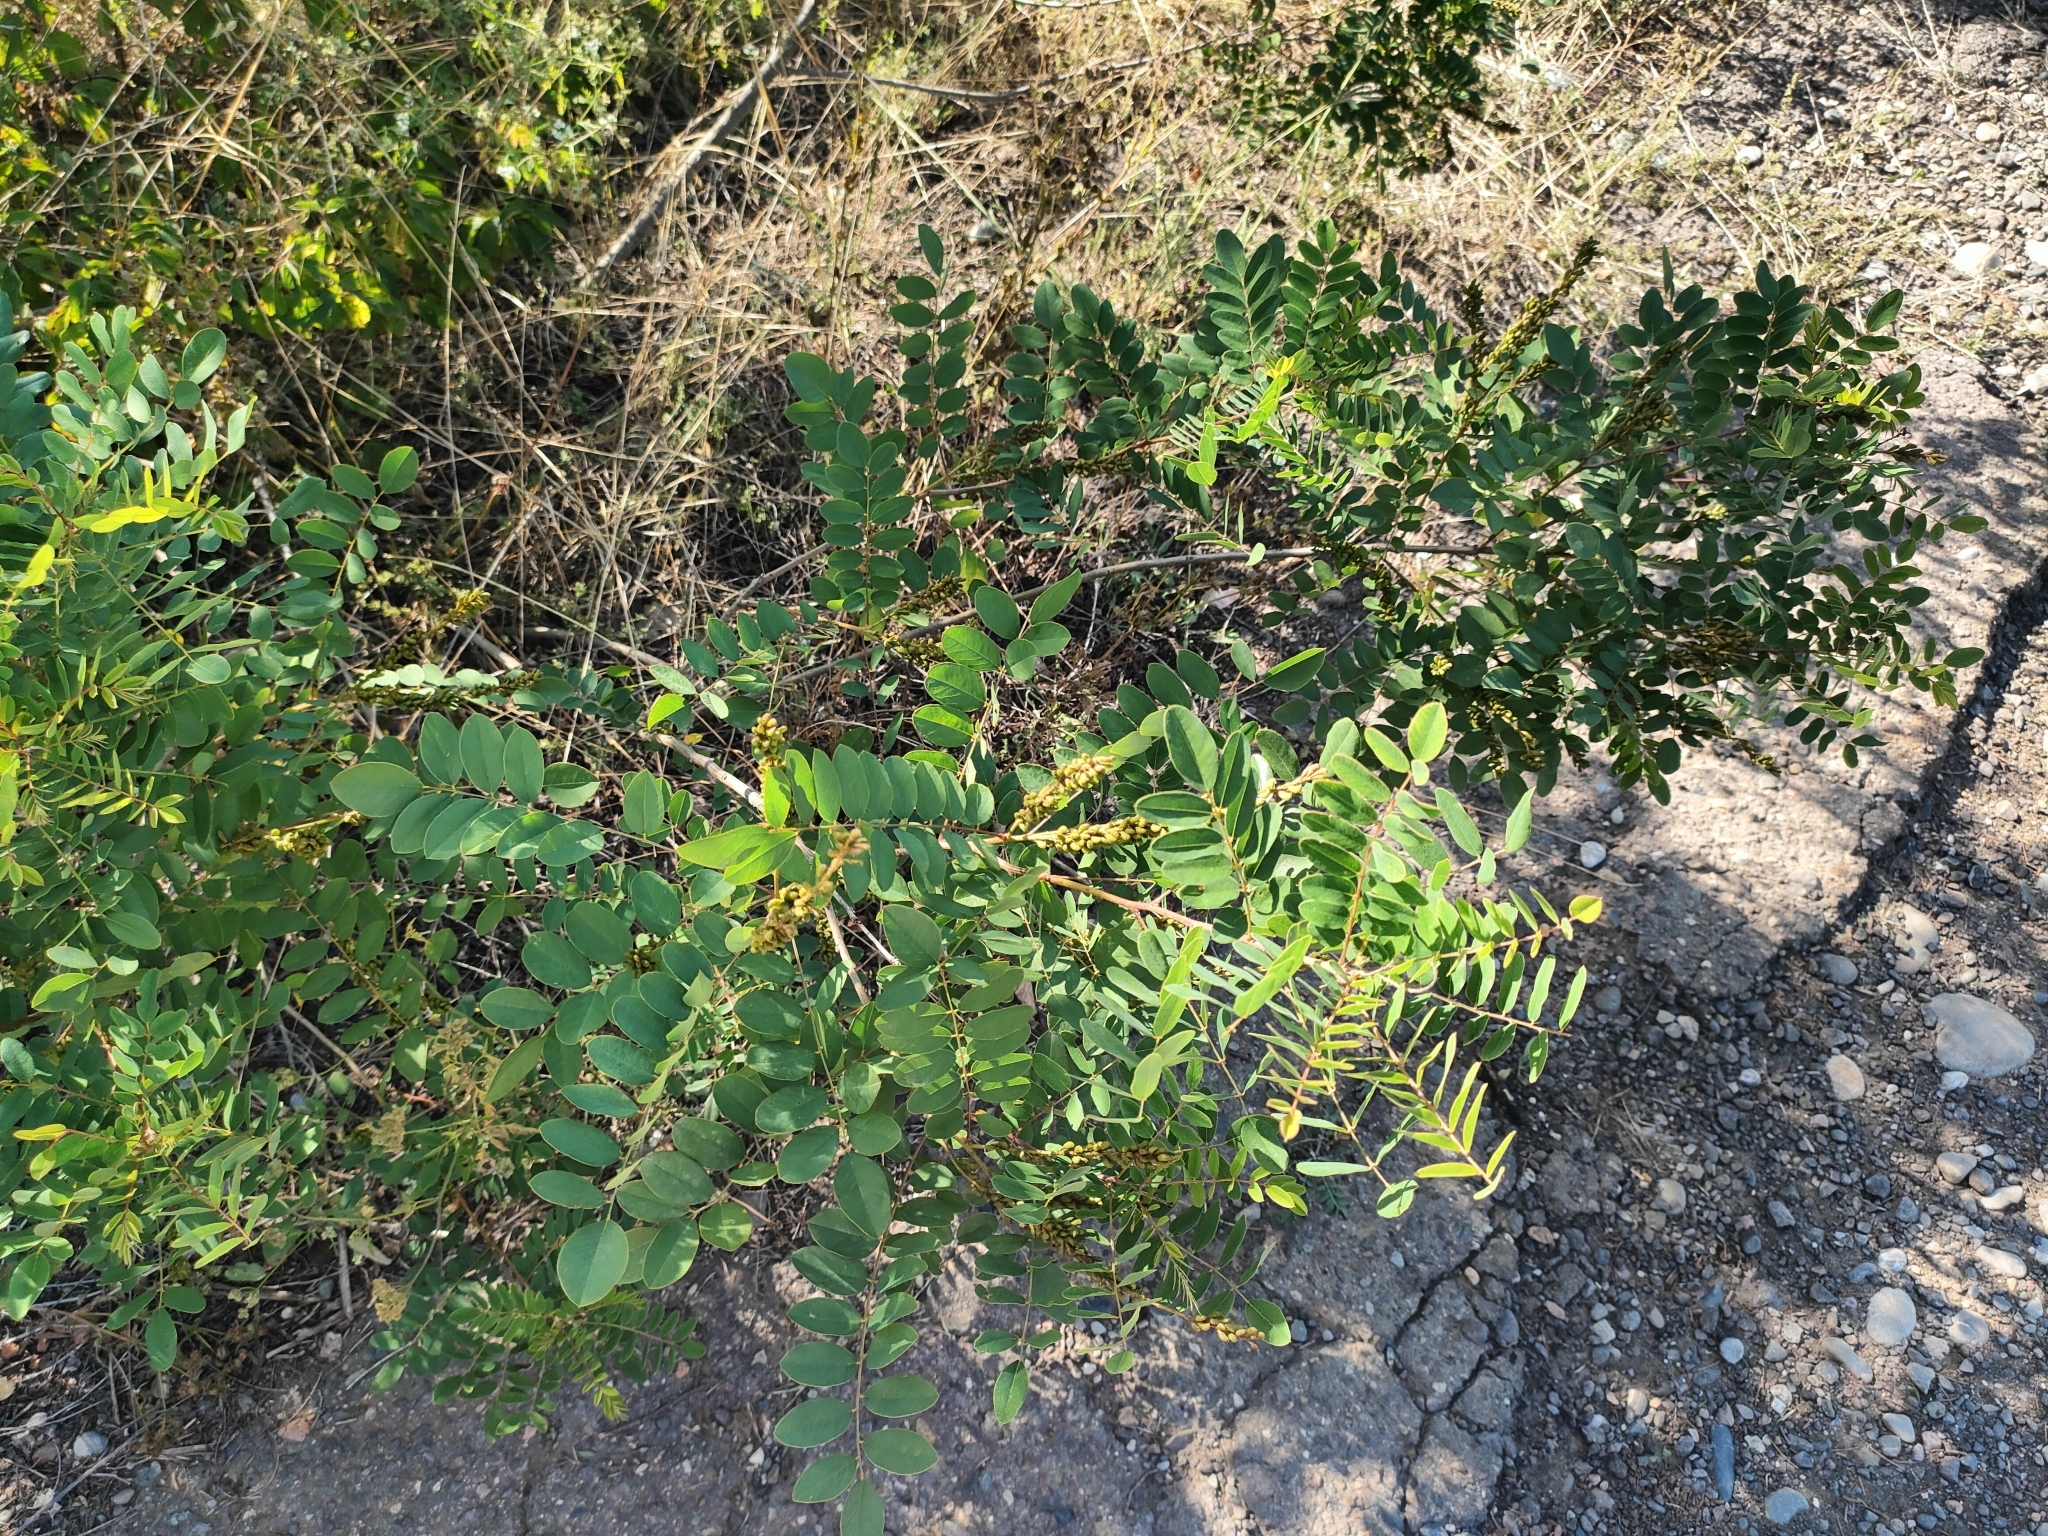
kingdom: Plantae
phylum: Tracheophyta
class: Magnoliopsida
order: Fabales
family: Fabaceae
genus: Amorpha
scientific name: Amorpha fruticosa
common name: False indigo
